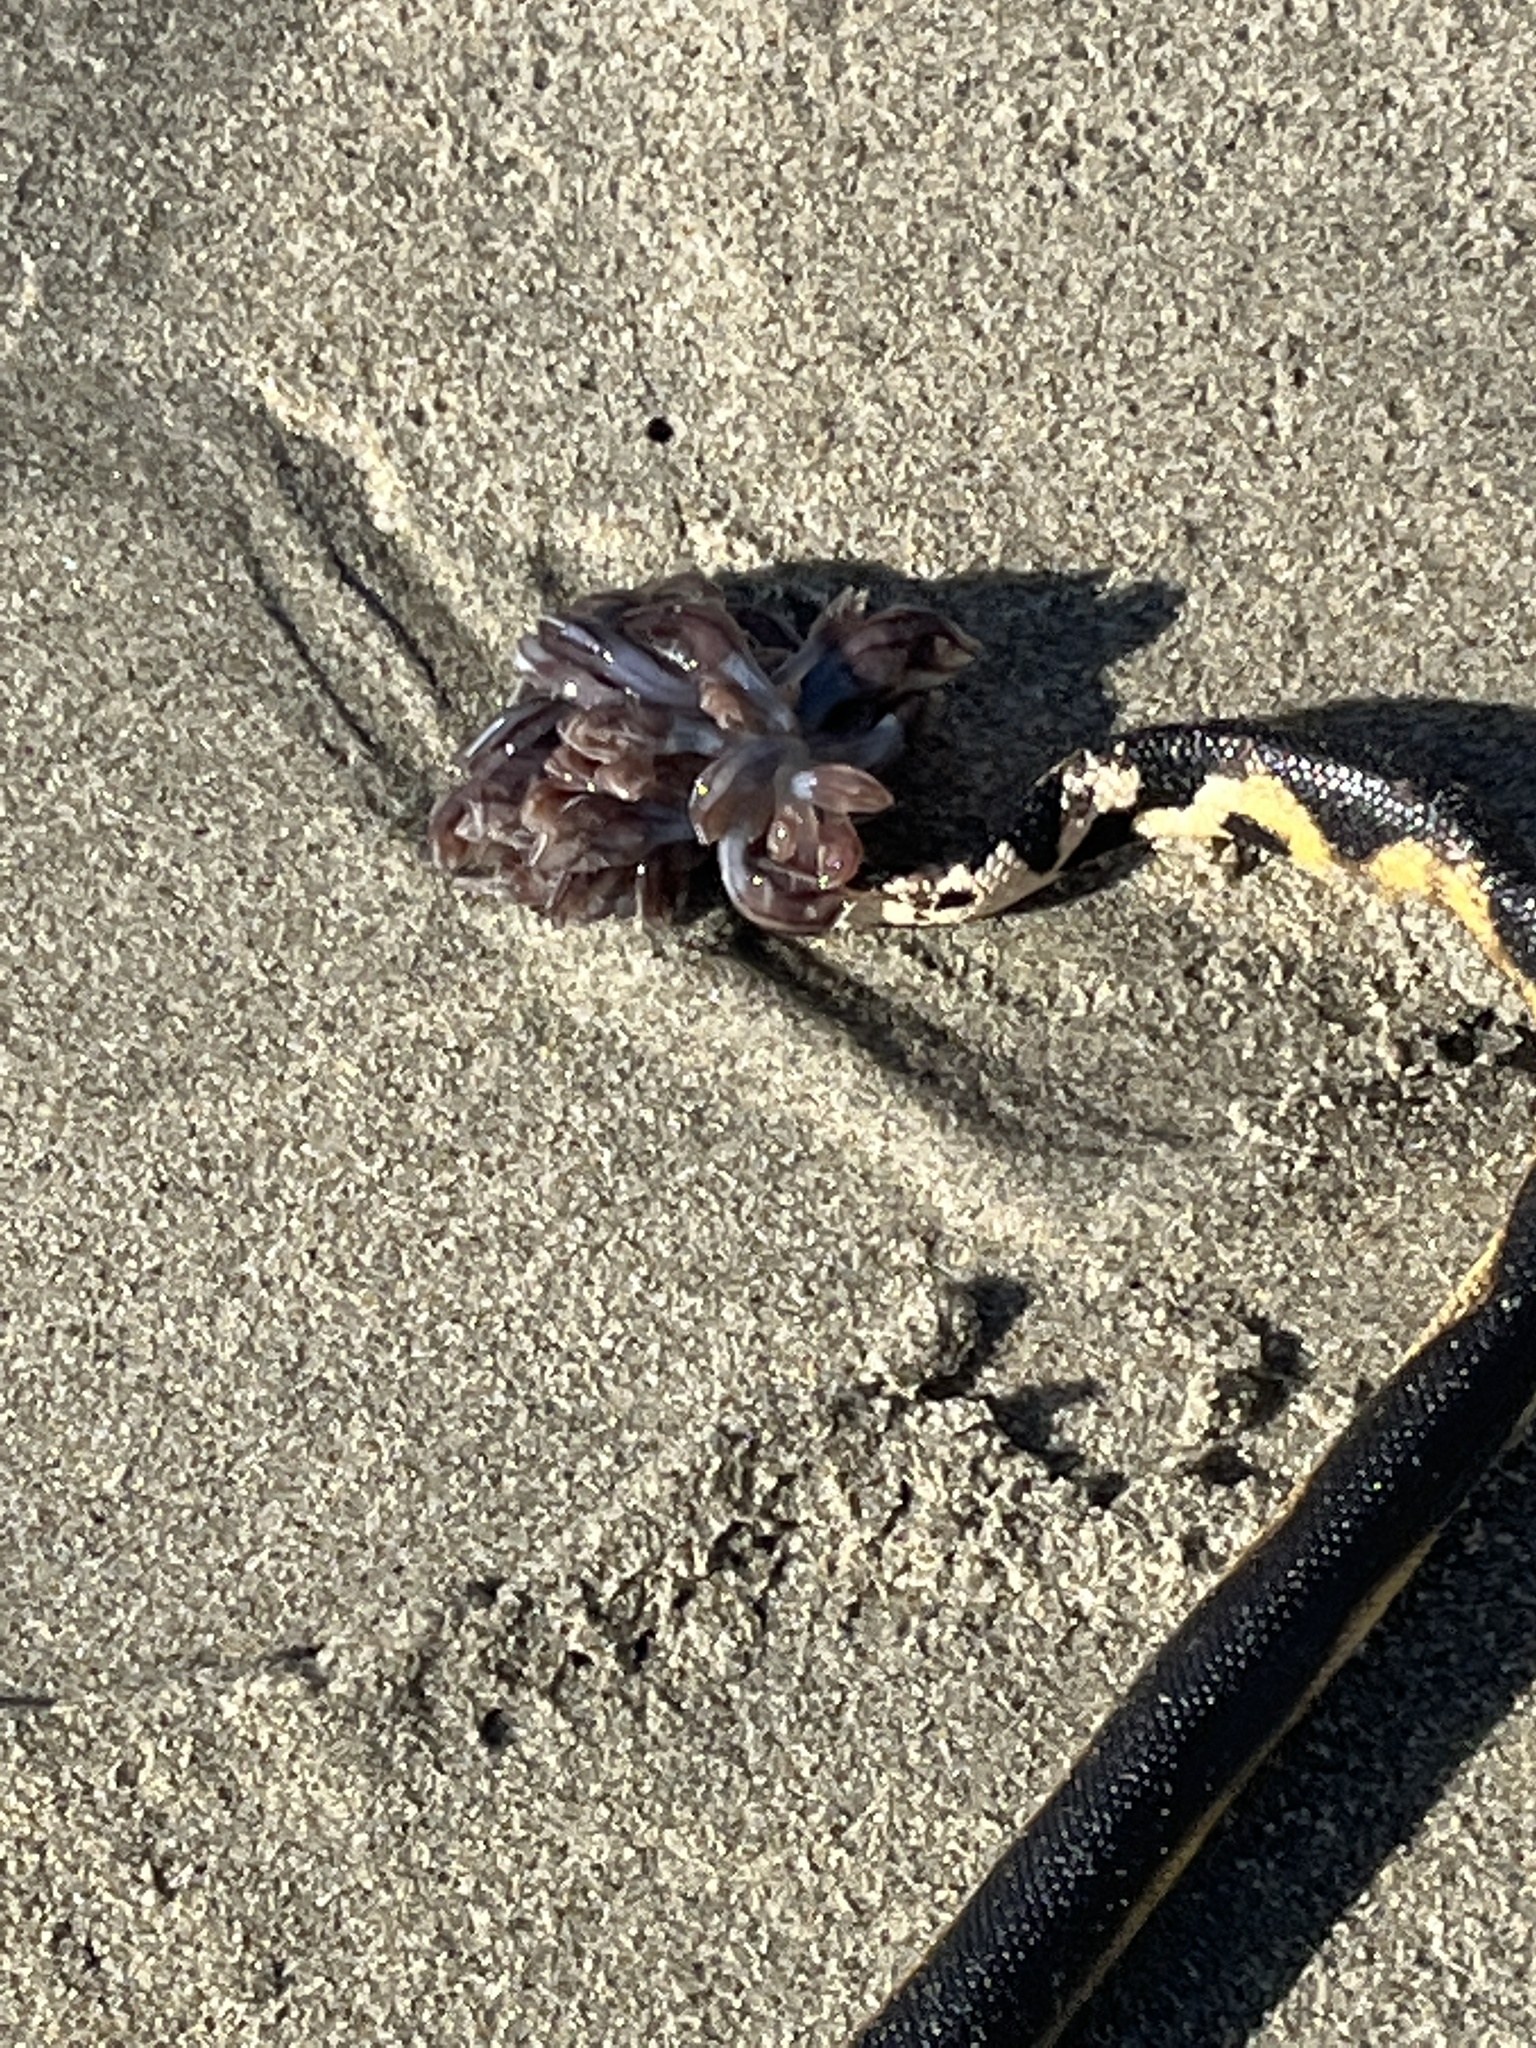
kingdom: Animalia
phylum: Chordata
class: Squamata
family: Elapidae
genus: Hydrophis
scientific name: Hydrophis platurus
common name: Pelagic sea snake
